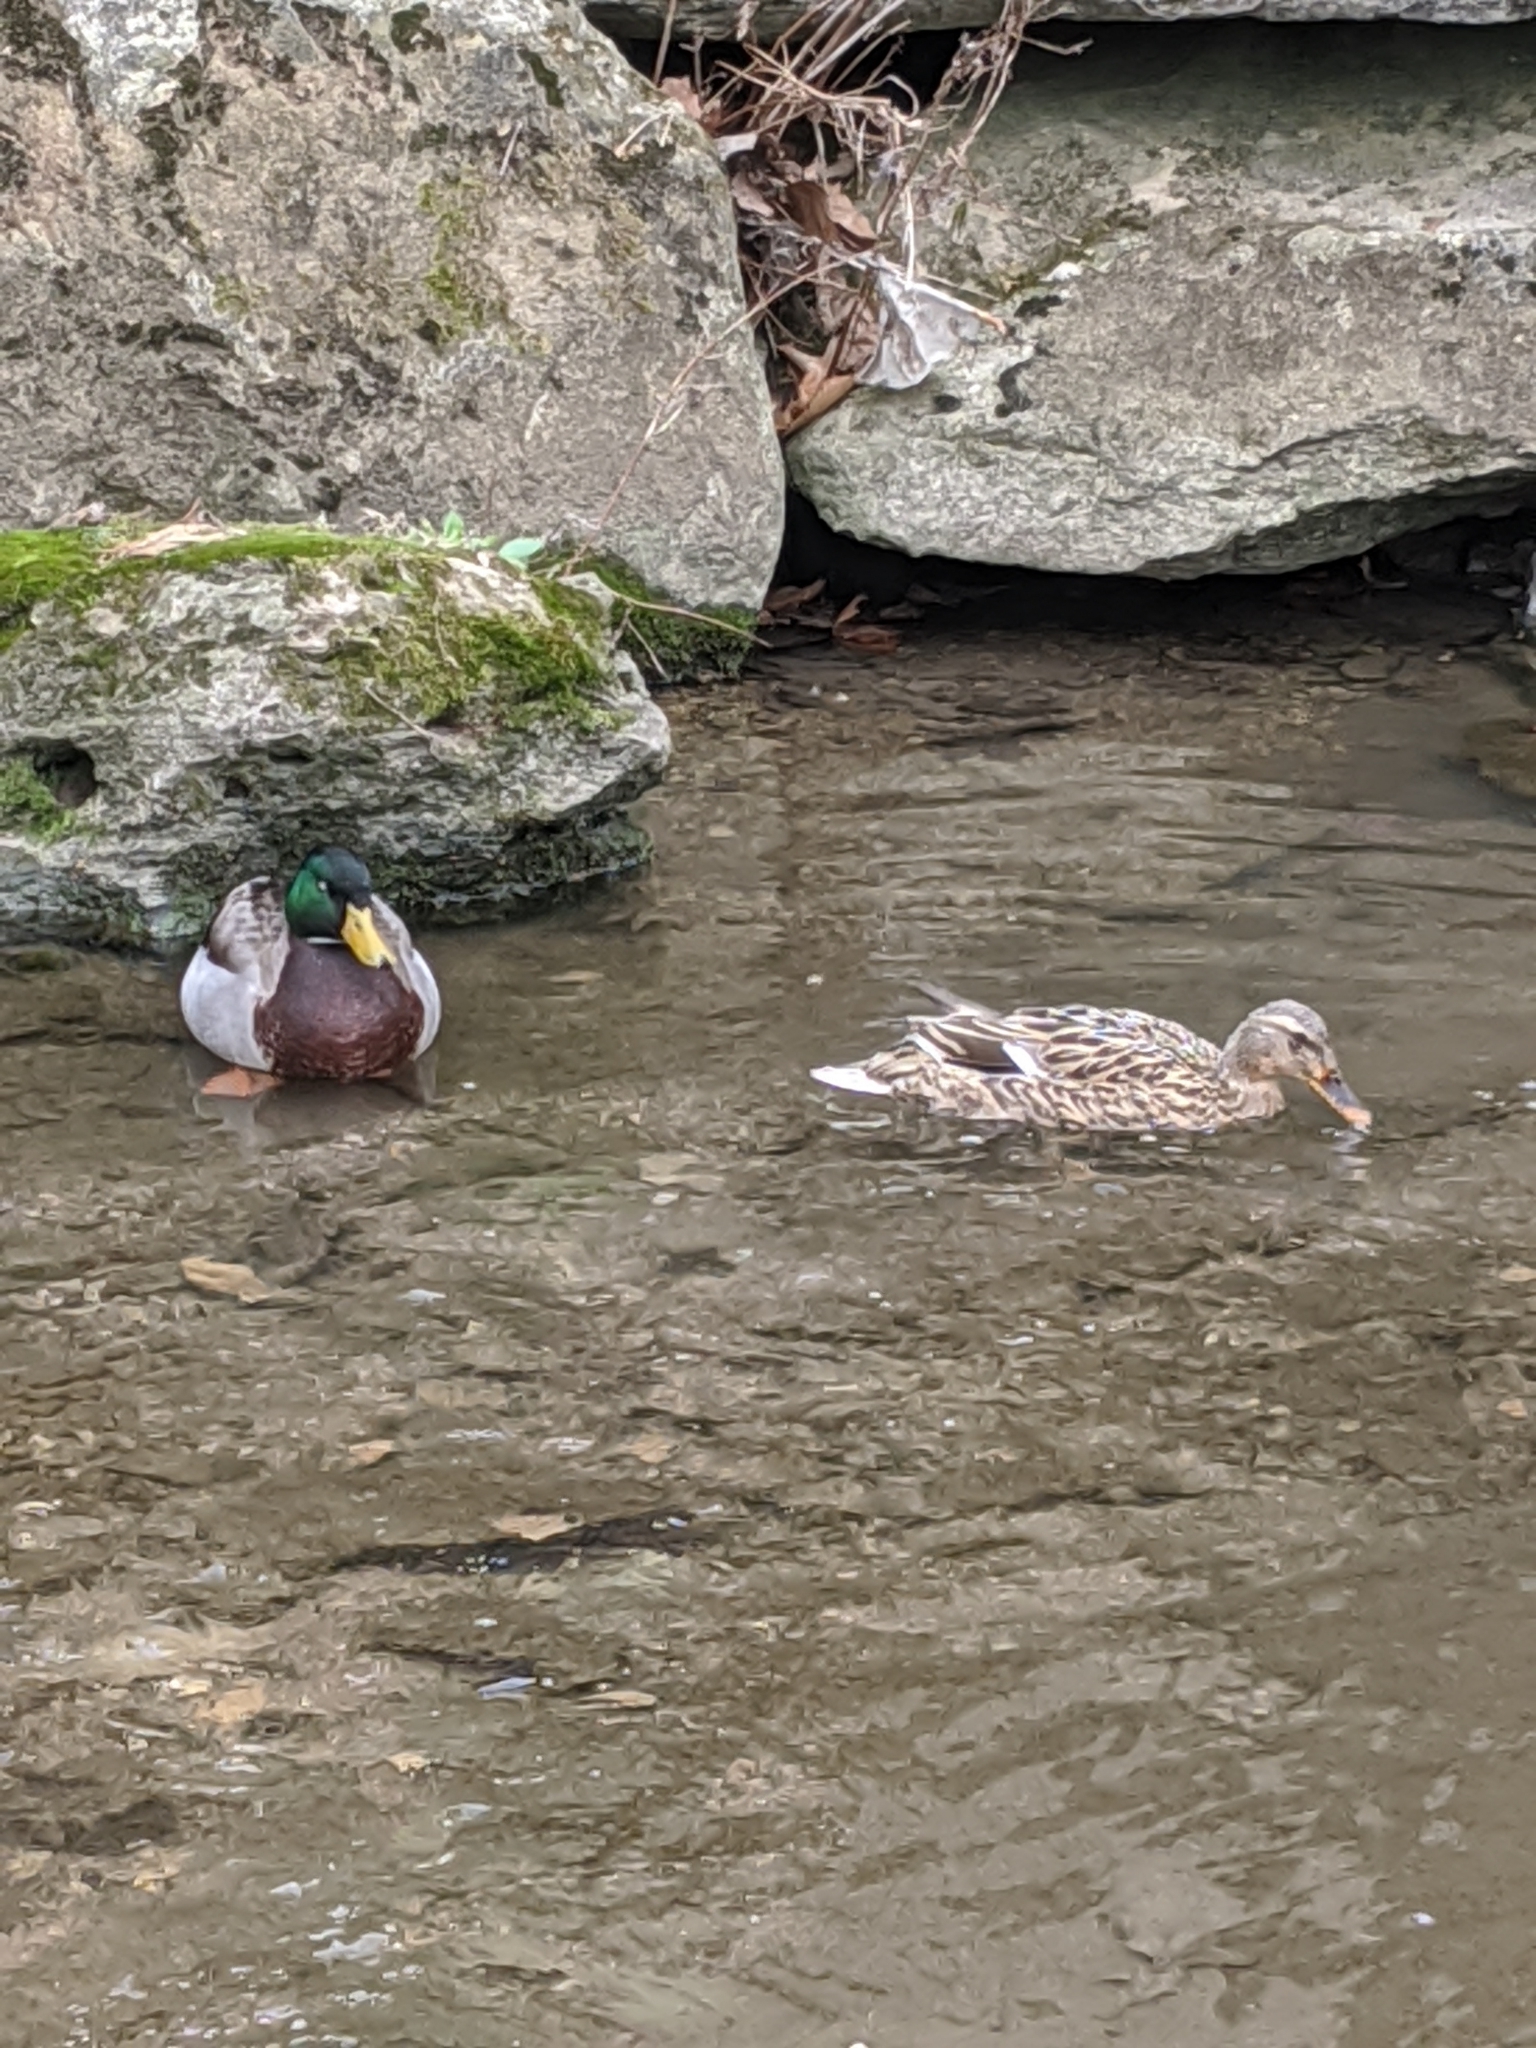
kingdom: Animalia
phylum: Chordata
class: Aves
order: Anseriformes
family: Anatidae
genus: Anas
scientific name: Anas platyrhynchos
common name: Mallard
